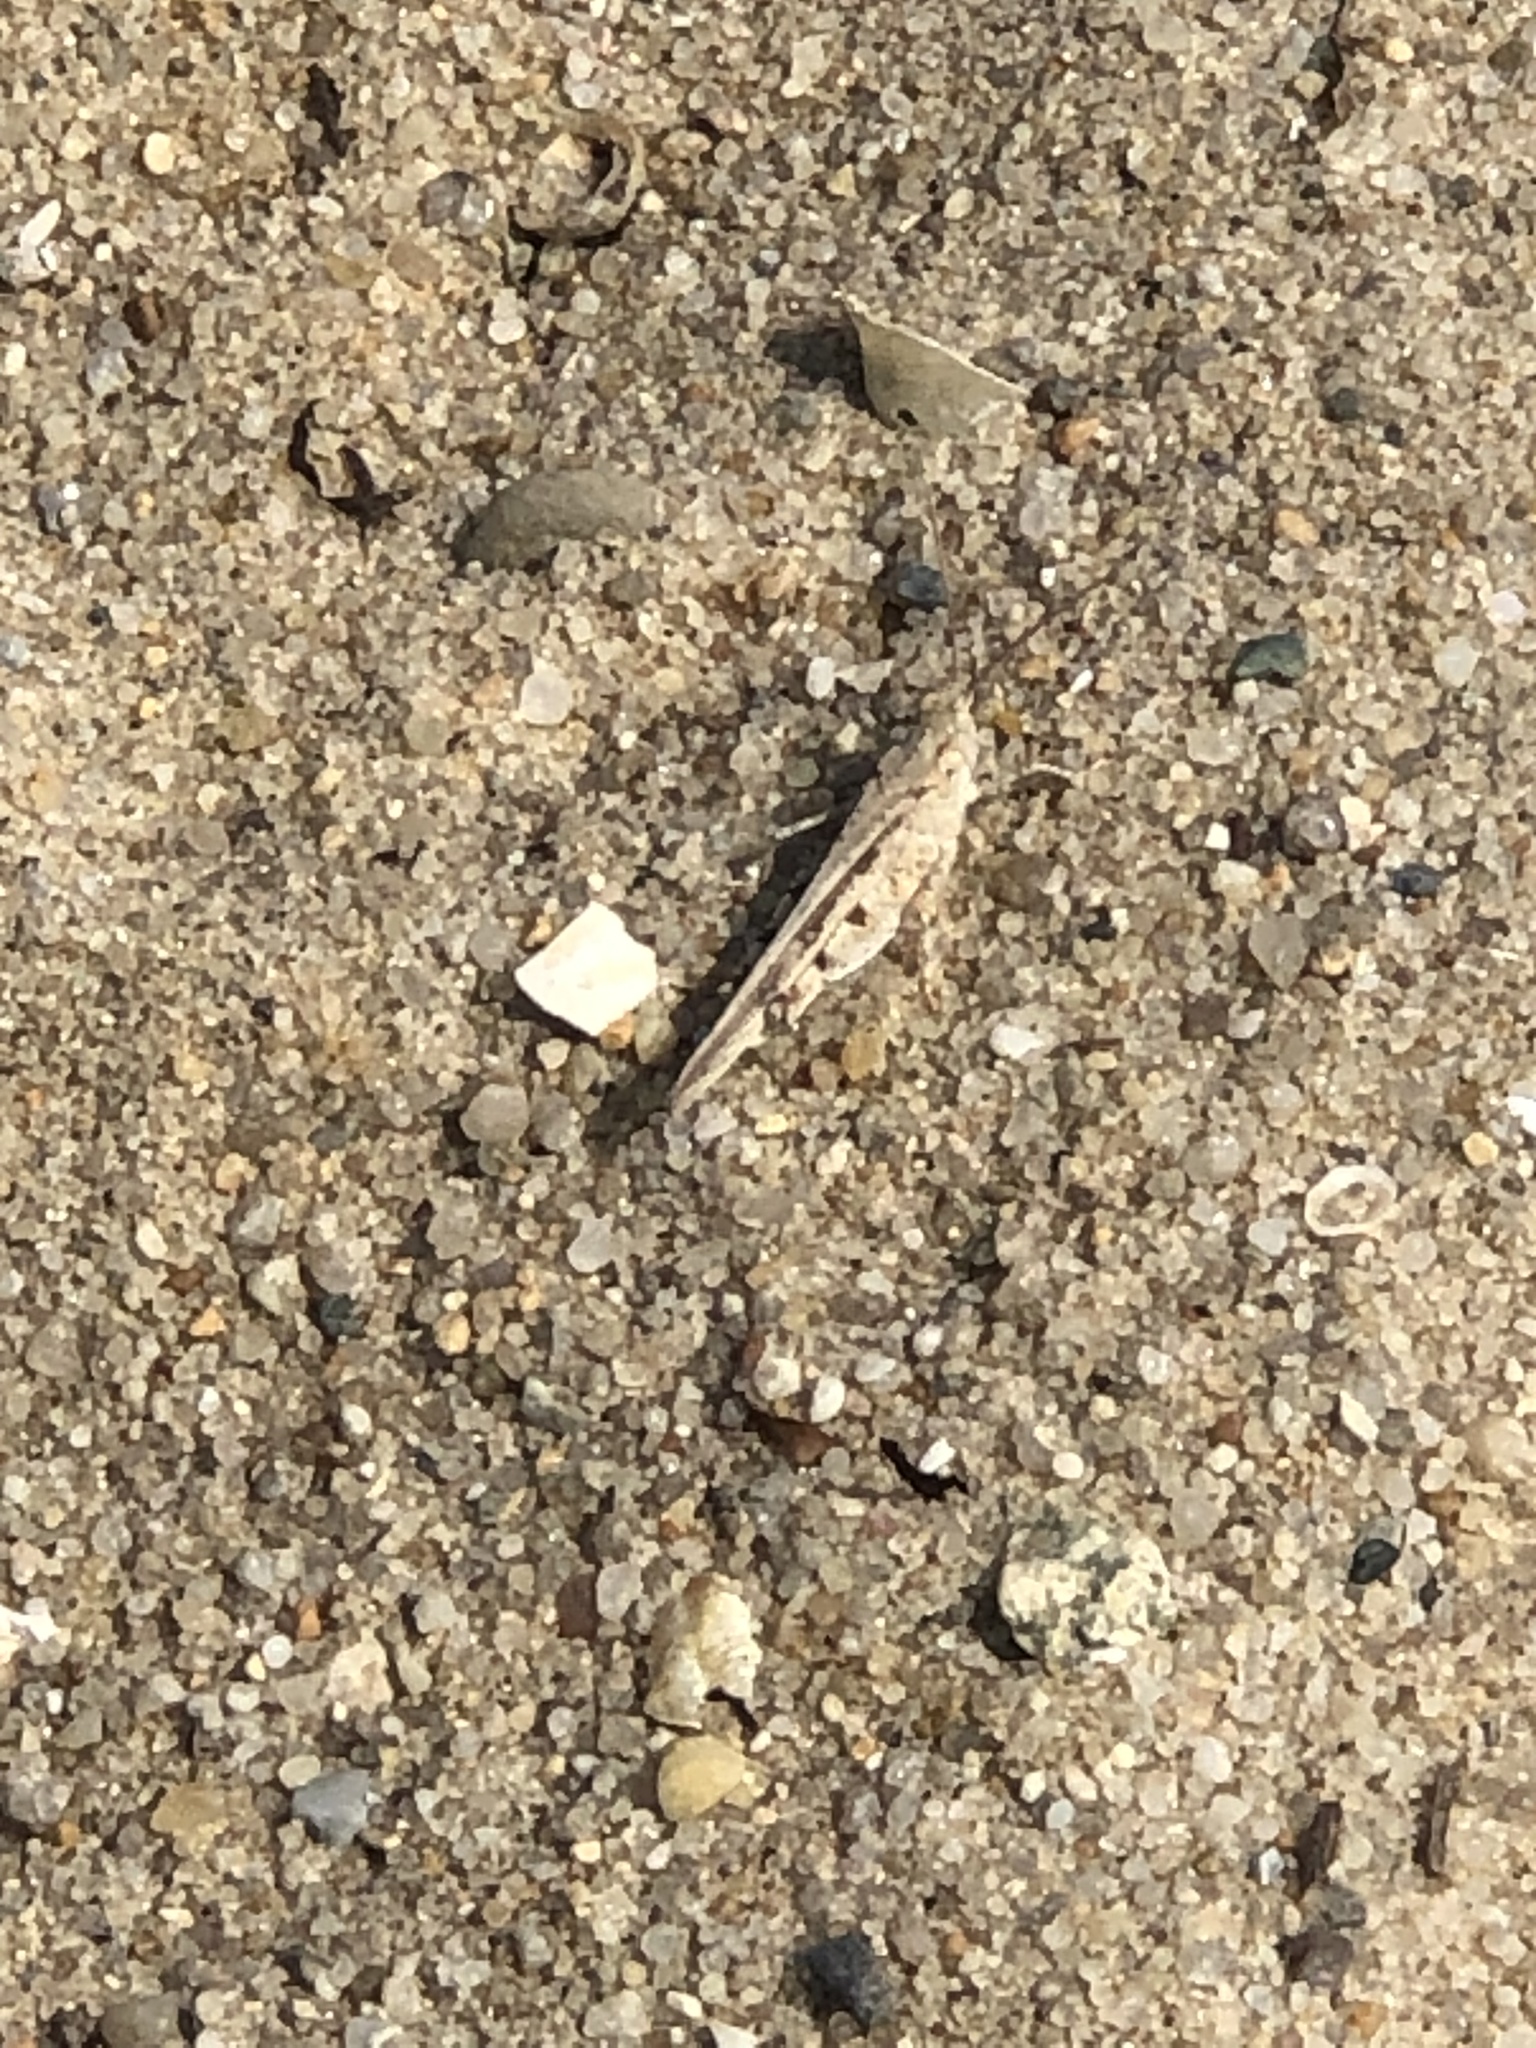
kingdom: Animalia
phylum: Arthropoda
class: Insecta
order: Orthoptera
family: Acrididae
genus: Trimerotropis
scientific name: Trimerotropis maritima
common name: Seaside locust
